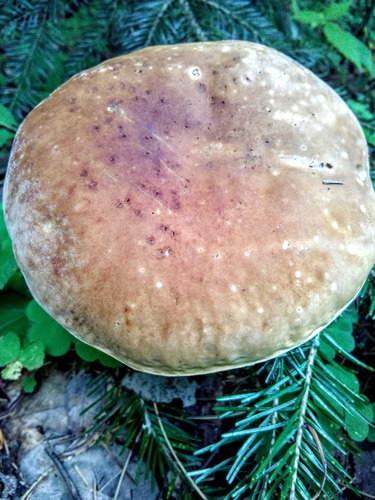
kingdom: Fungi
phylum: Basidiomycota
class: Agaricomycetes
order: Boletales
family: Boletaceae
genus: Boletus
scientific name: Boletus edulis
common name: Cep
